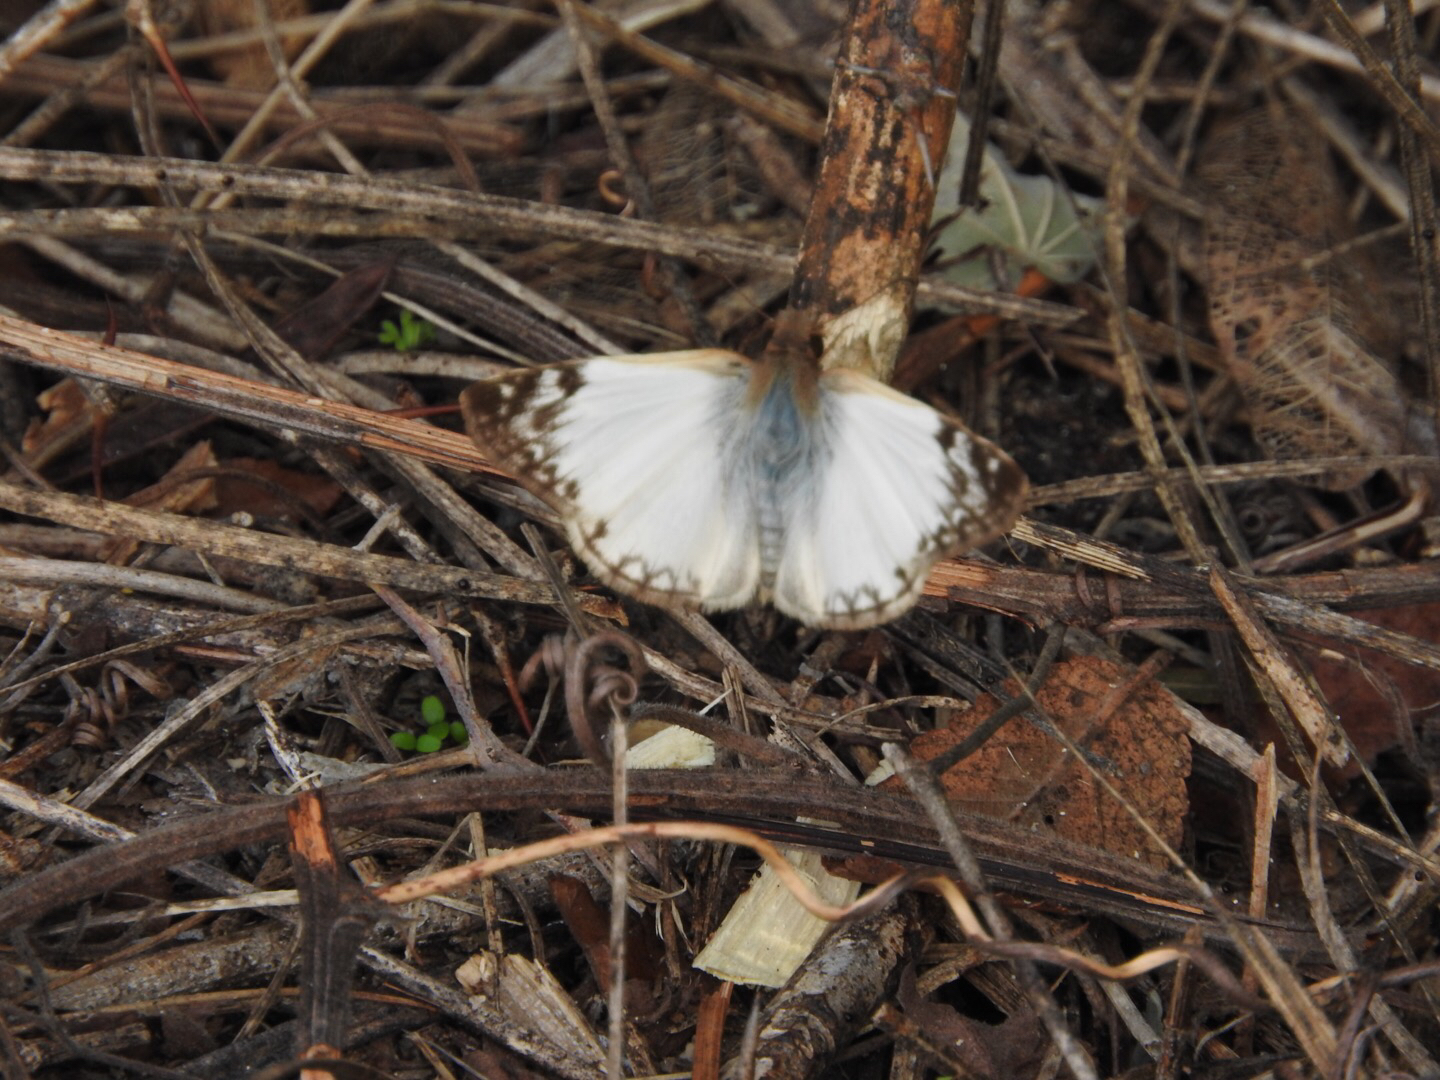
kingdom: Animalia
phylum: Arthropoda
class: Insecta
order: Lepidoptera
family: Hesperiidae
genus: Heliopetes
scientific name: Heliopetes laviana
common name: Laviana white-skipper
